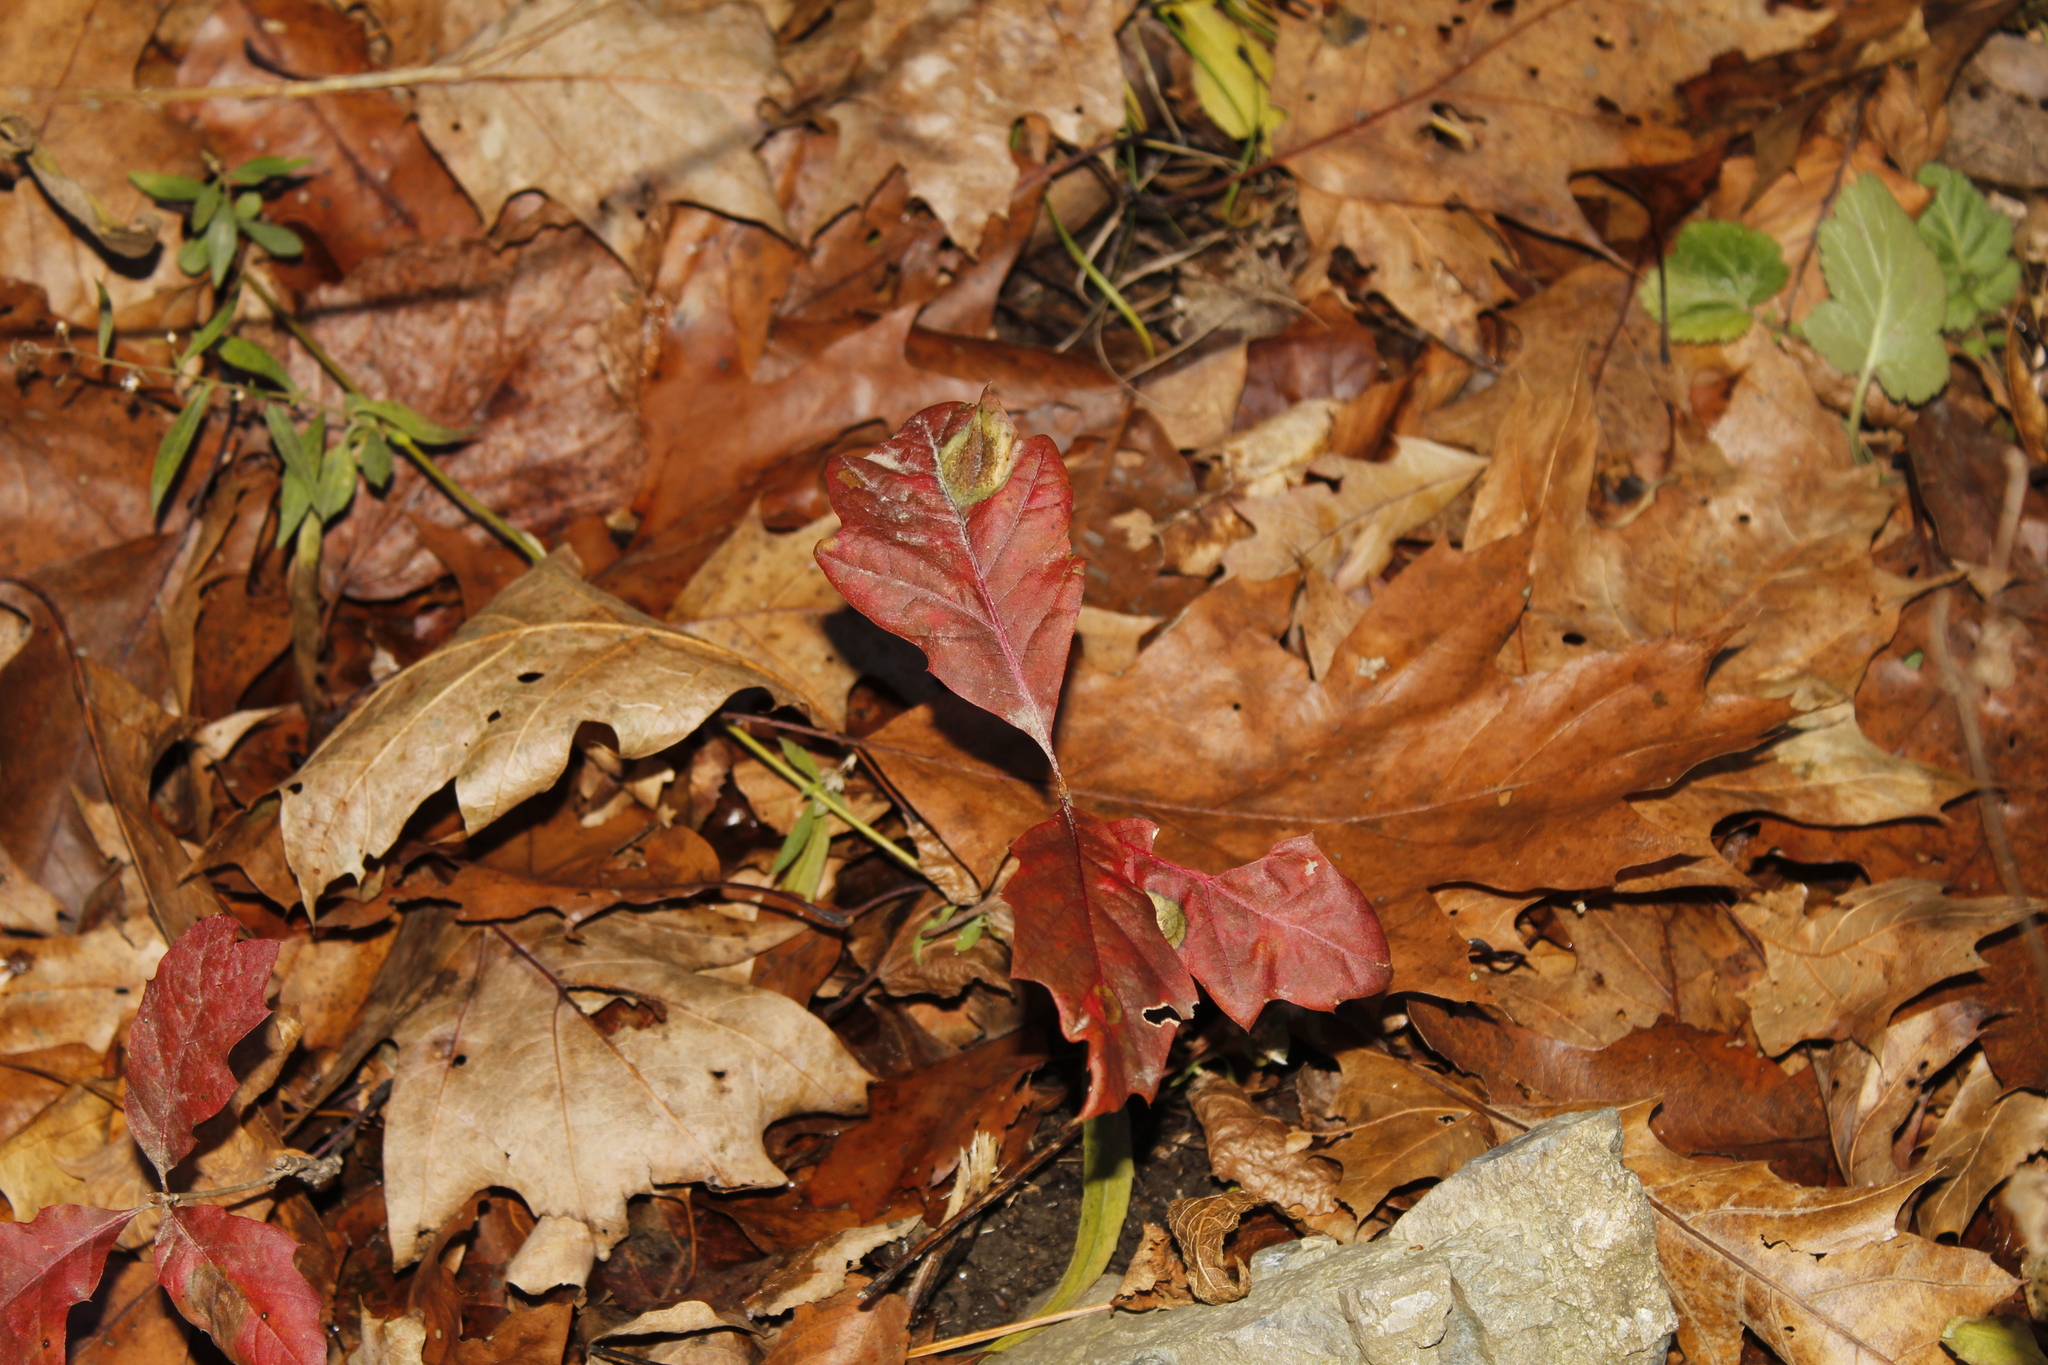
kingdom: Plantae
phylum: Tracheophyta
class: Magnoliopsida
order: Fagales
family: Fagaceae
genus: Quercus
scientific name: Quercus rubra
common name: Red oak
